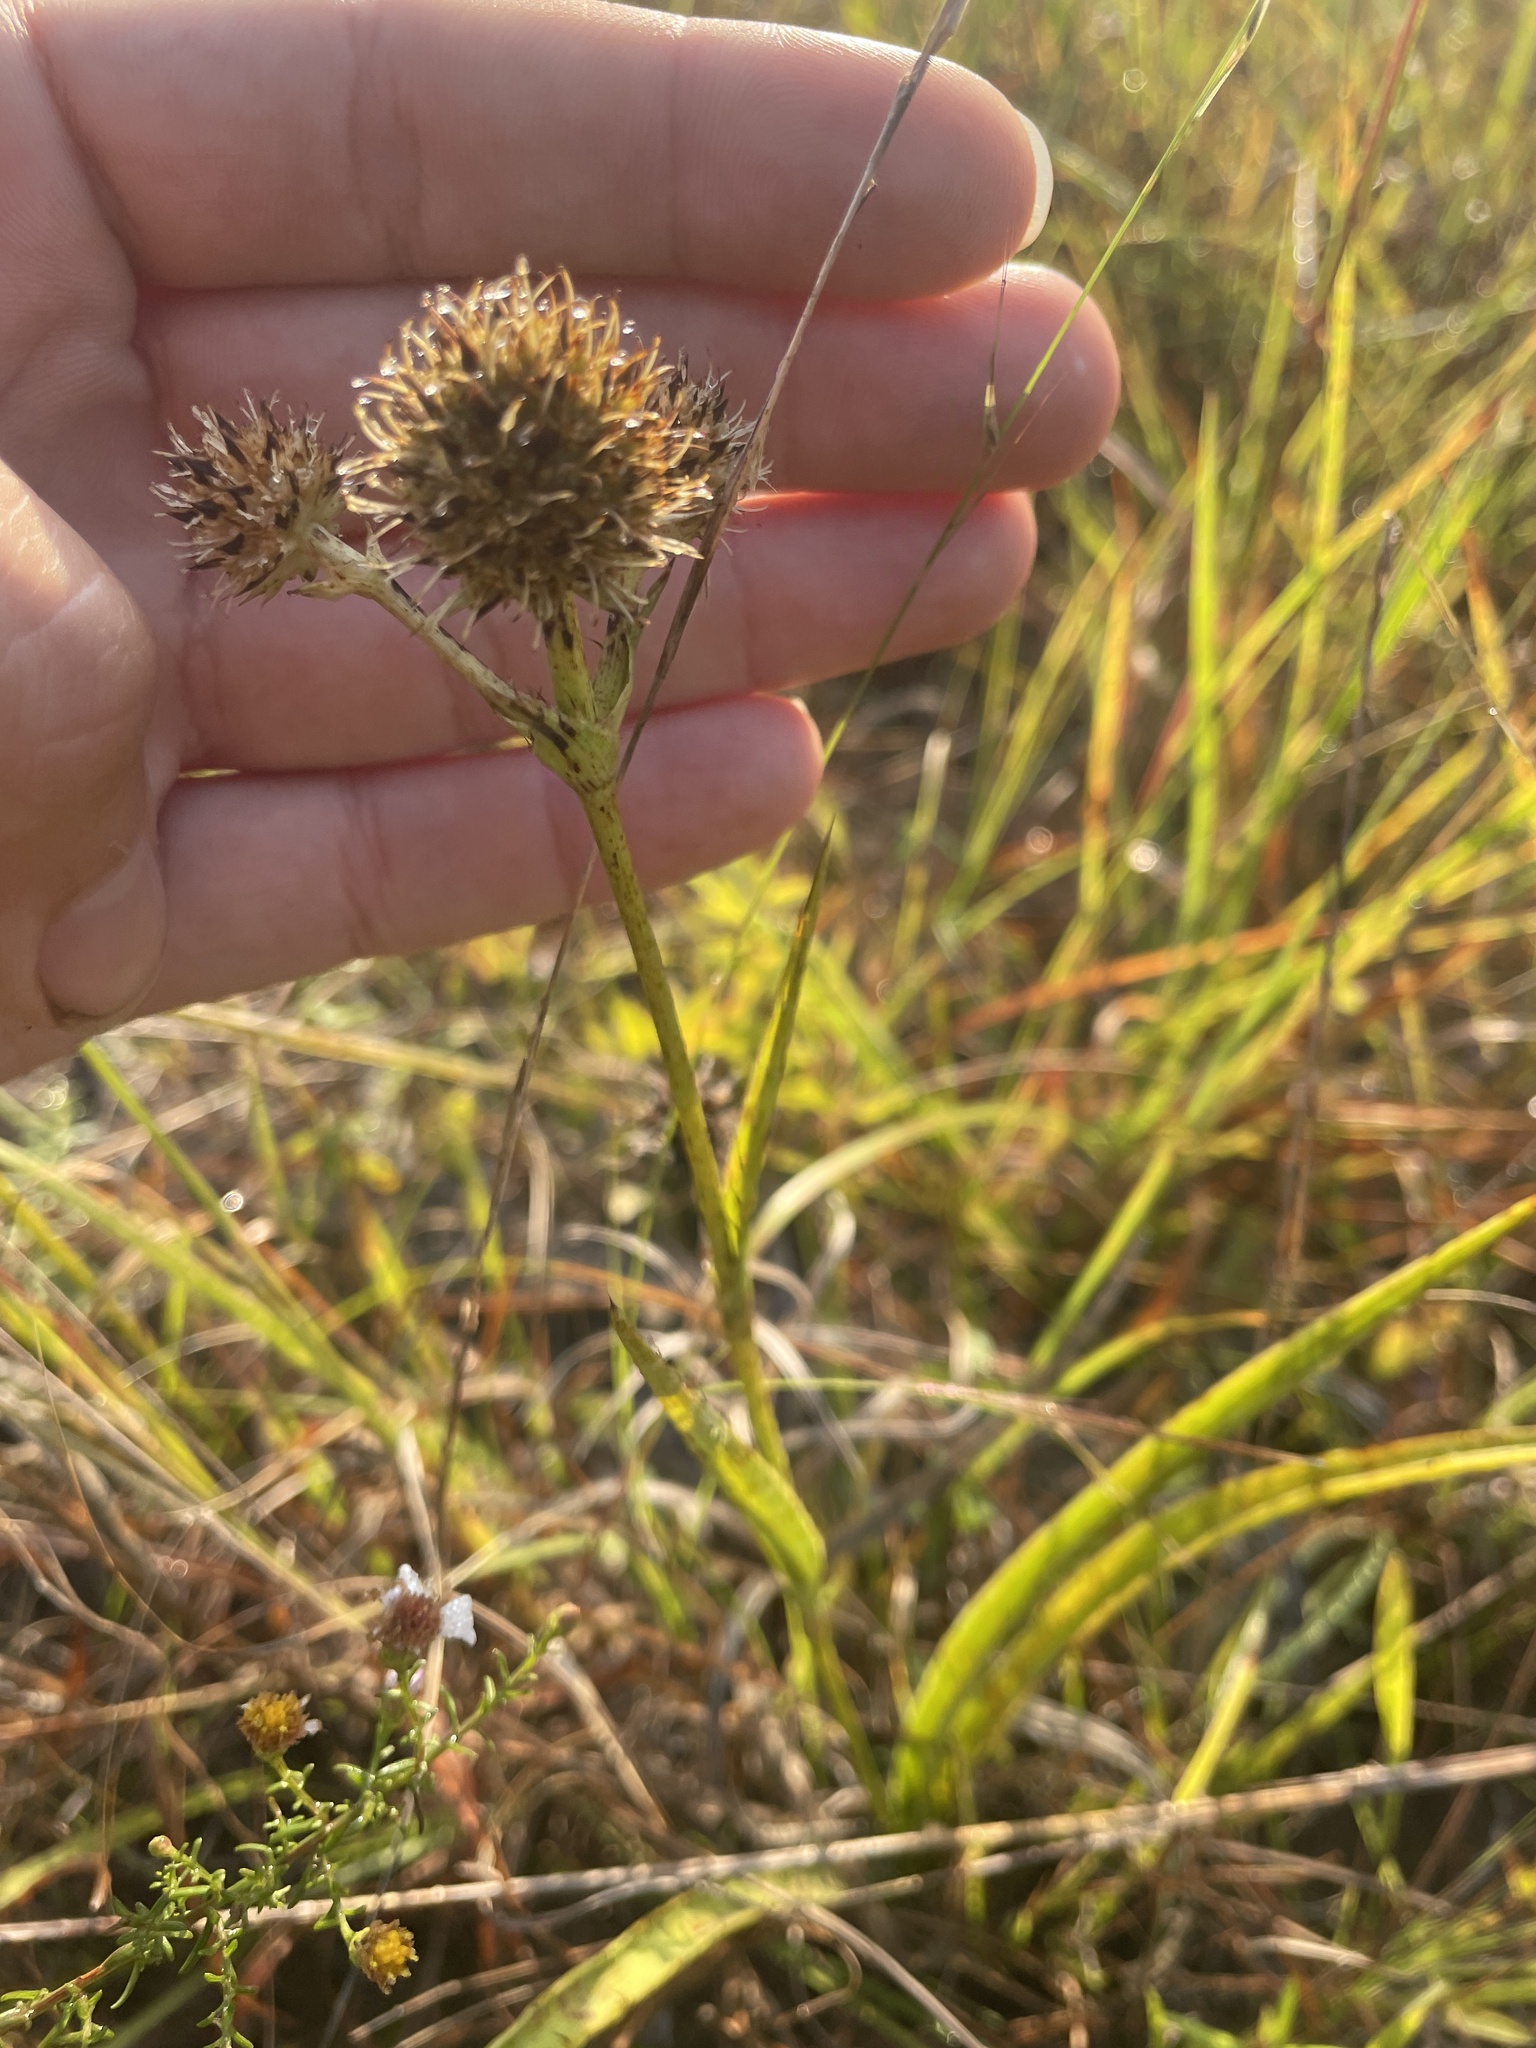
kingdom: Plantae
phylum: Tracheophyta
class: Magnoliopsida
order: Apiales
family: Apiaceae
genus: Eryngium
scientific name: Eryngium yuccifolium
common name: Button eryngo
